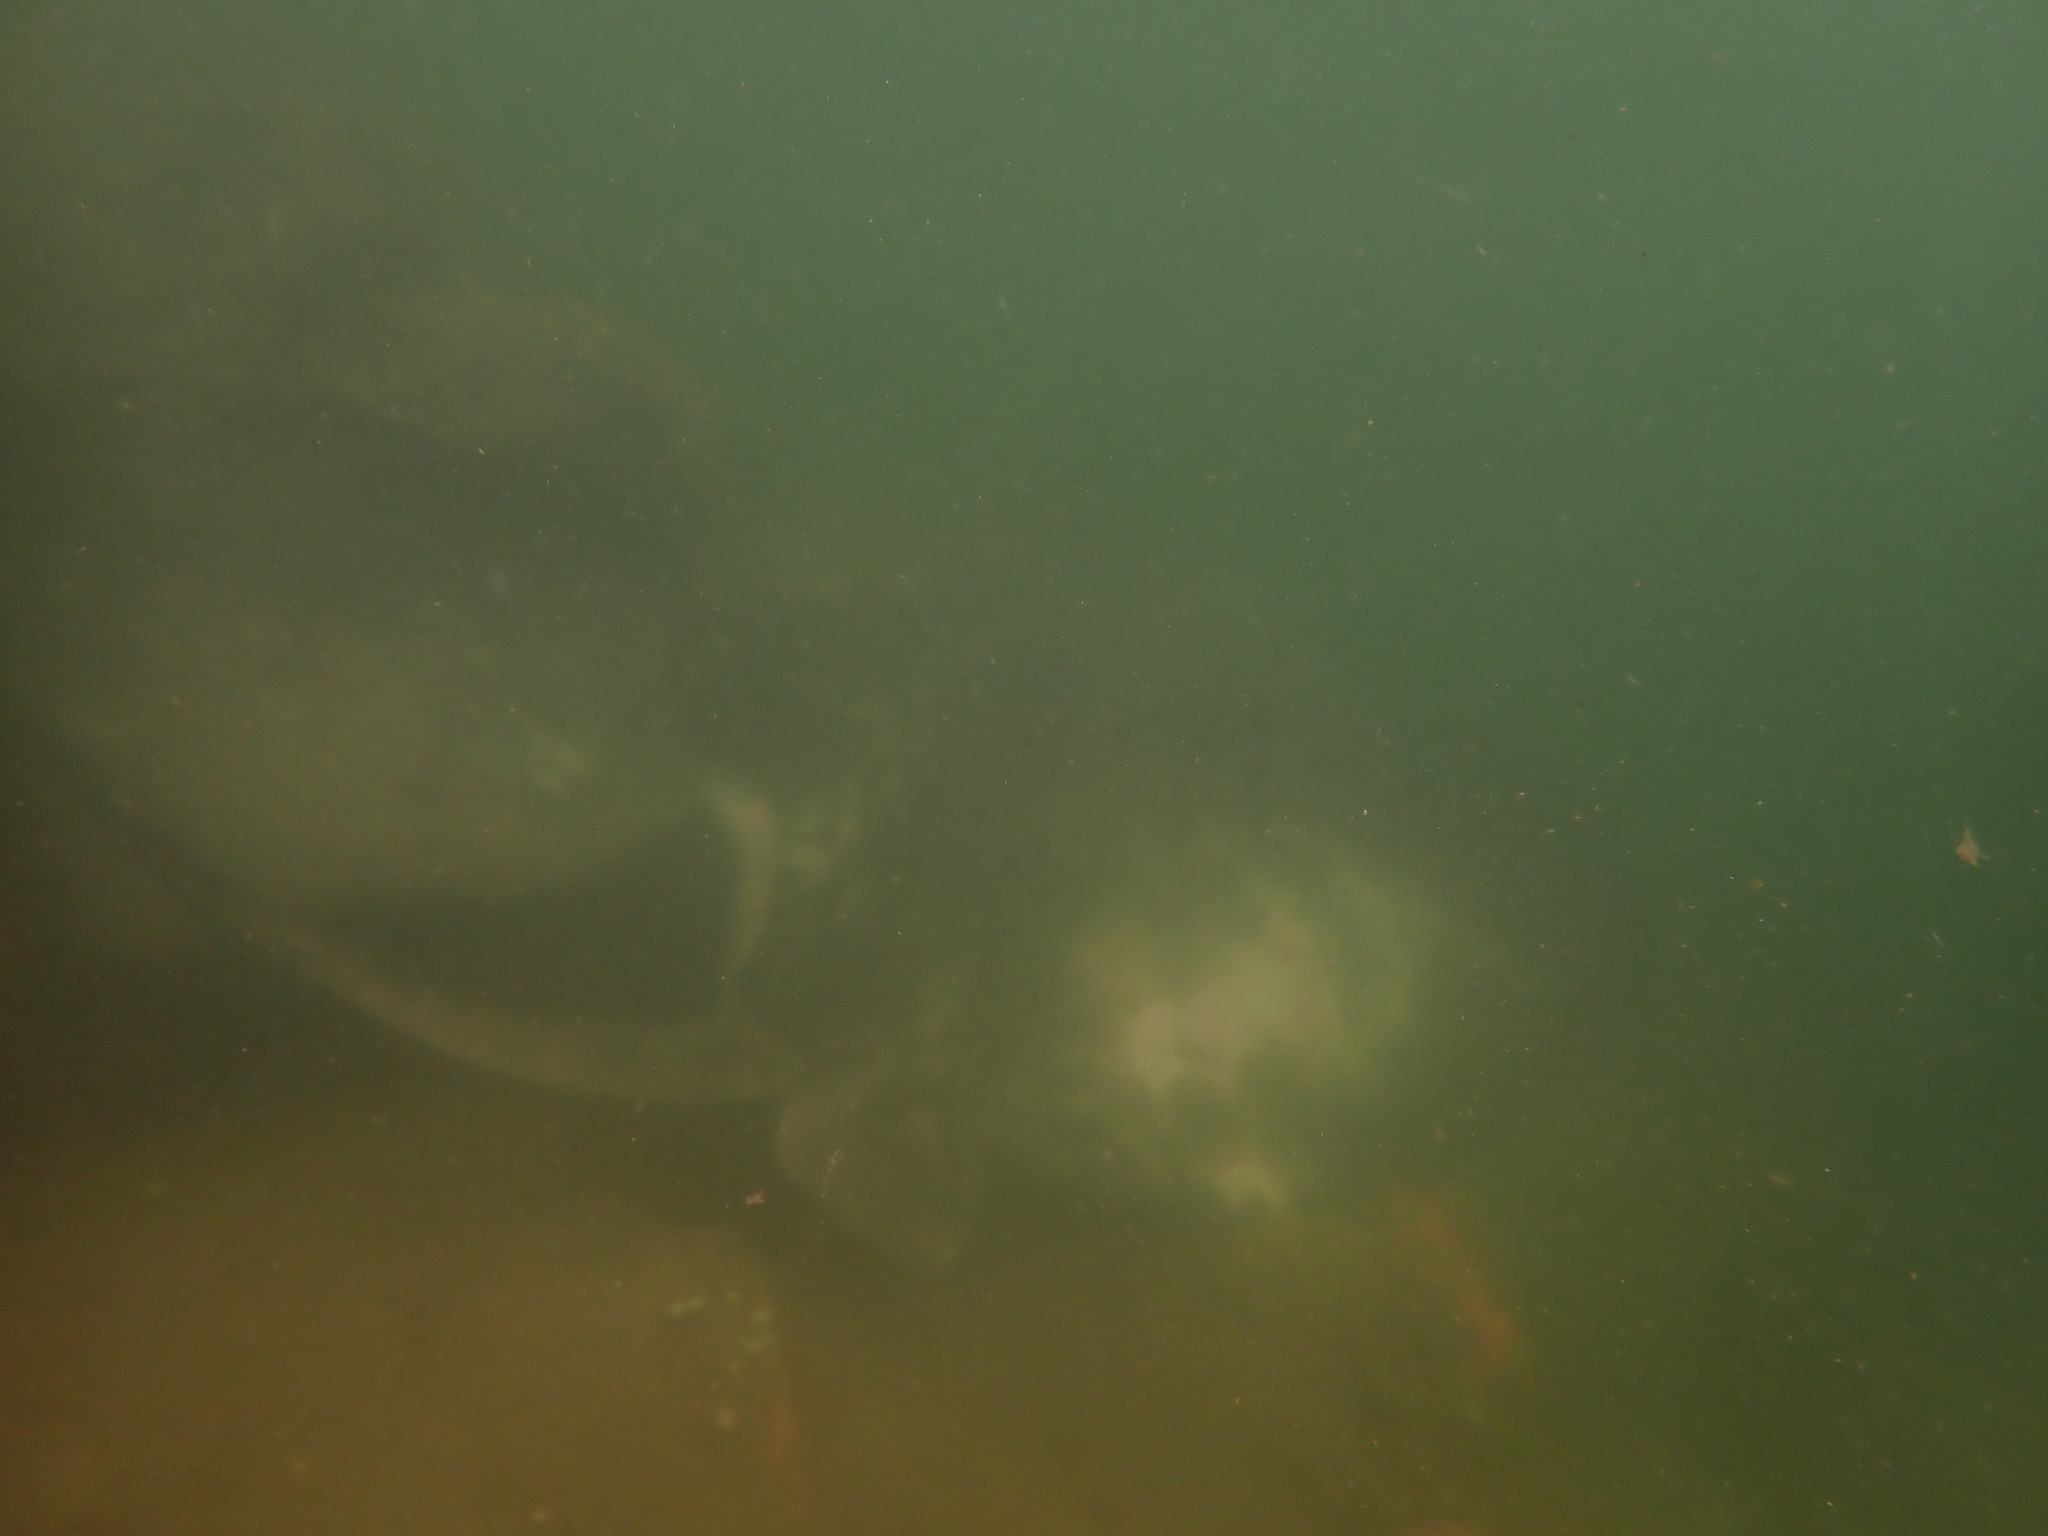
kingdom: Animalia
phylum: Chordata
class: Elasmobranchii
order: Myliobatiformes
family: Dasyatidae
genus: Bathytoshia
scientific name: Bathytoshia brevicaudata
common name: Short-tail stingray
